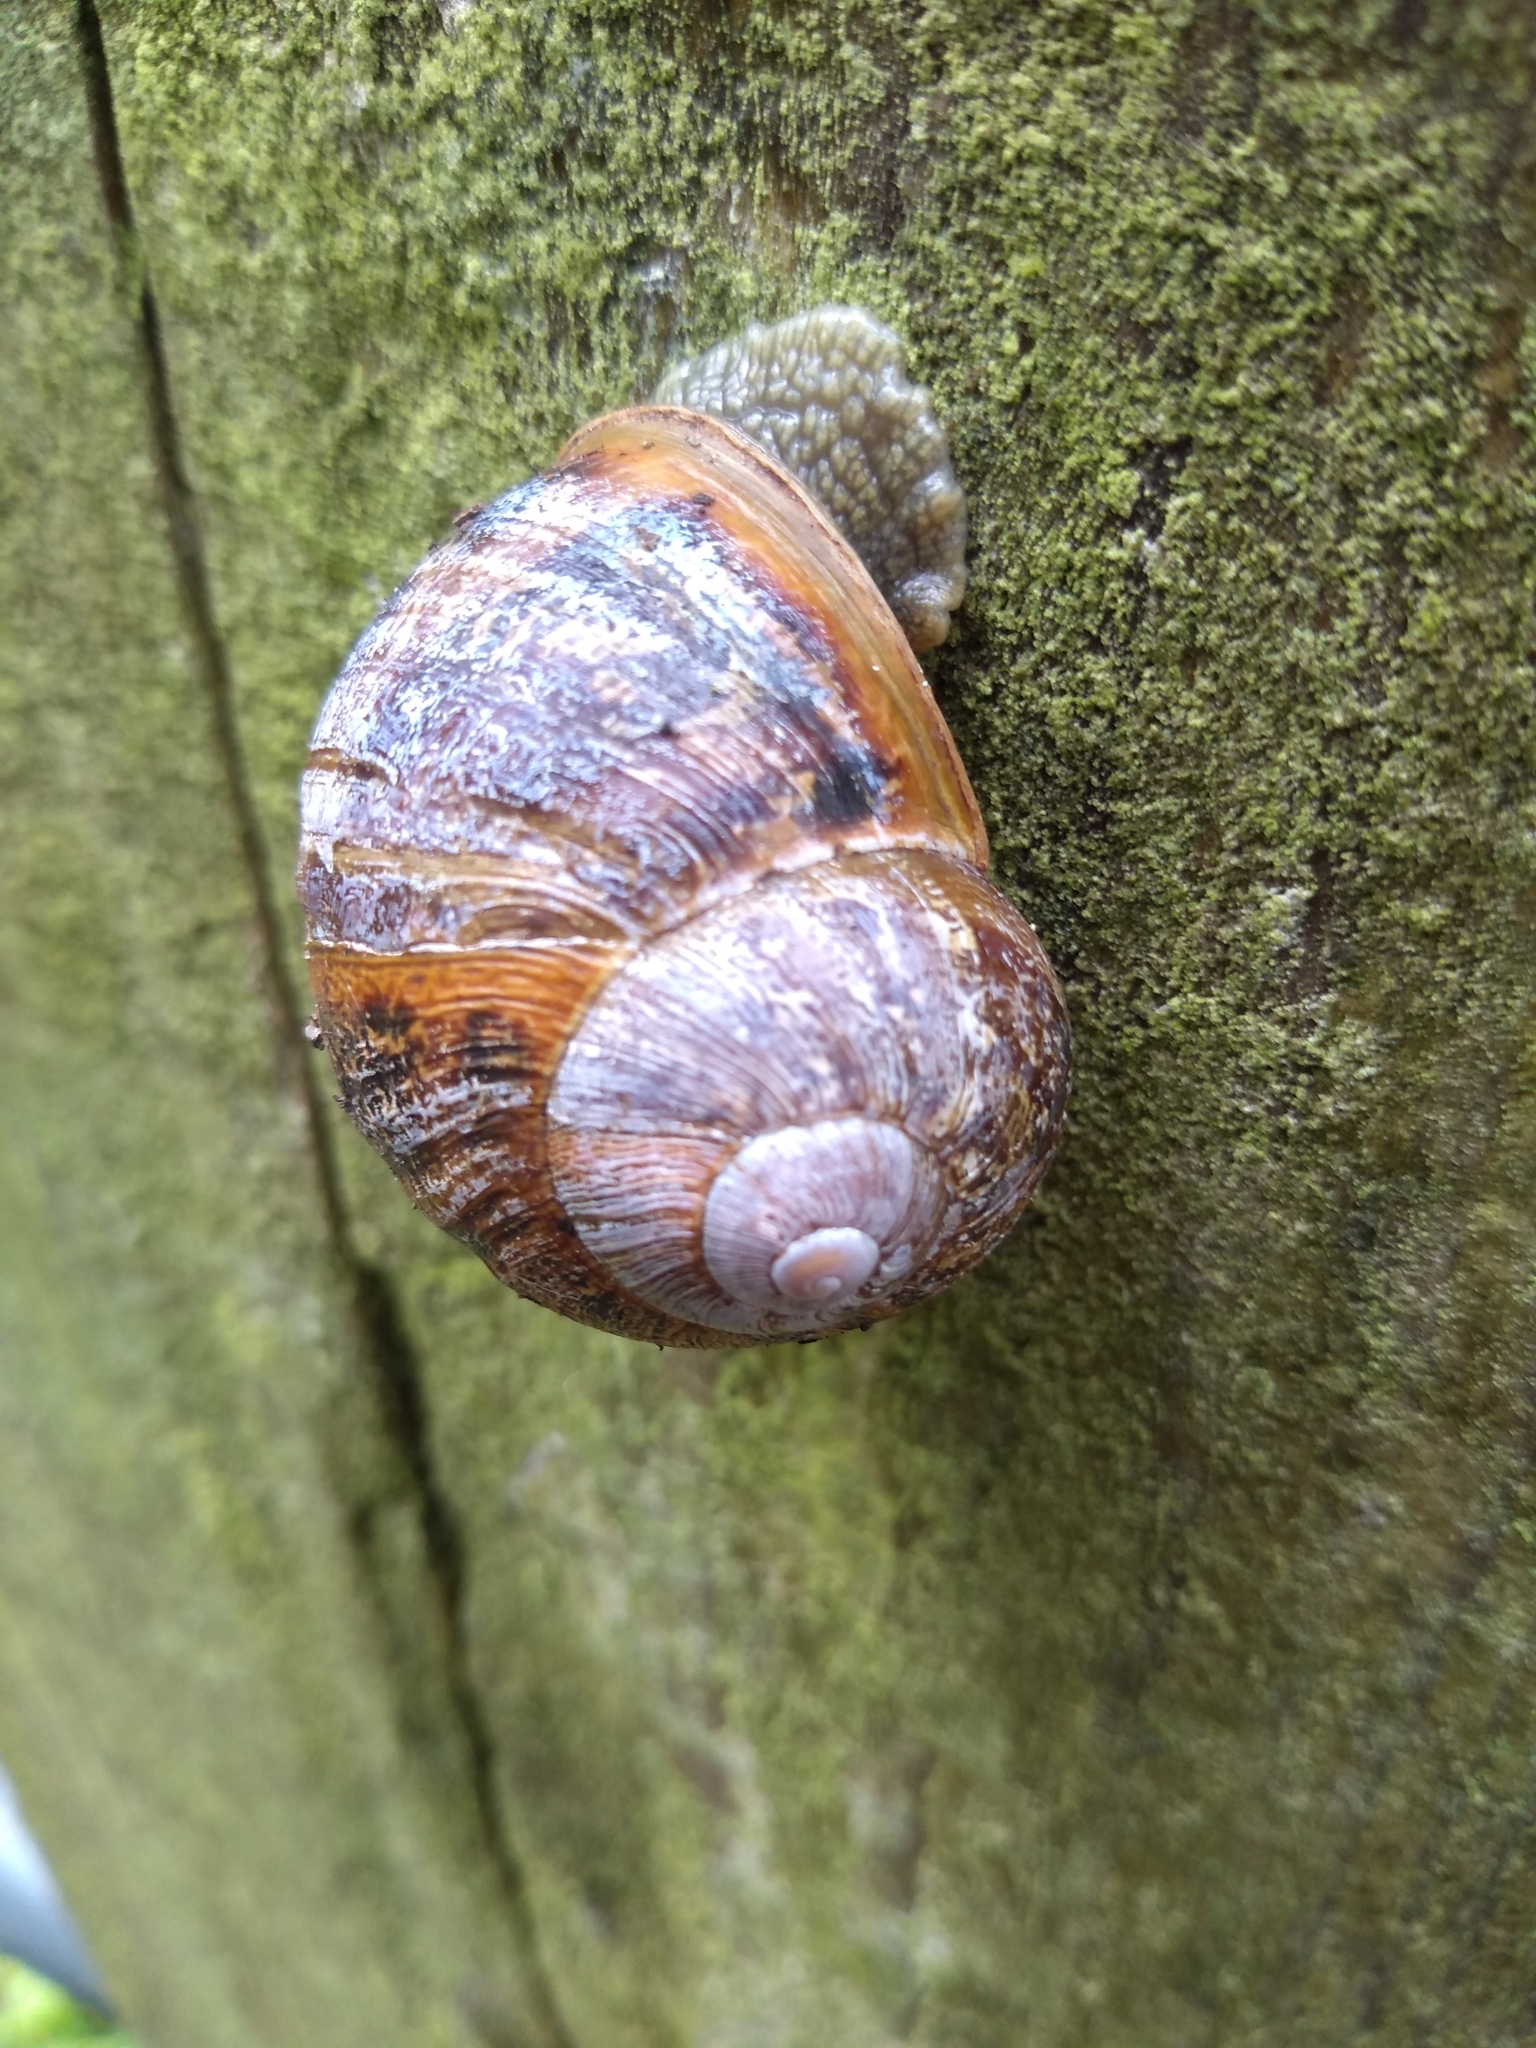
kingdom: Animalia
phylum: Mollusca
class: Gastropoda
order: Stylommatophora
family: Helicidae
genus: Cornu
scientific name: Cornu aspersum
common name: Brown garden snail
